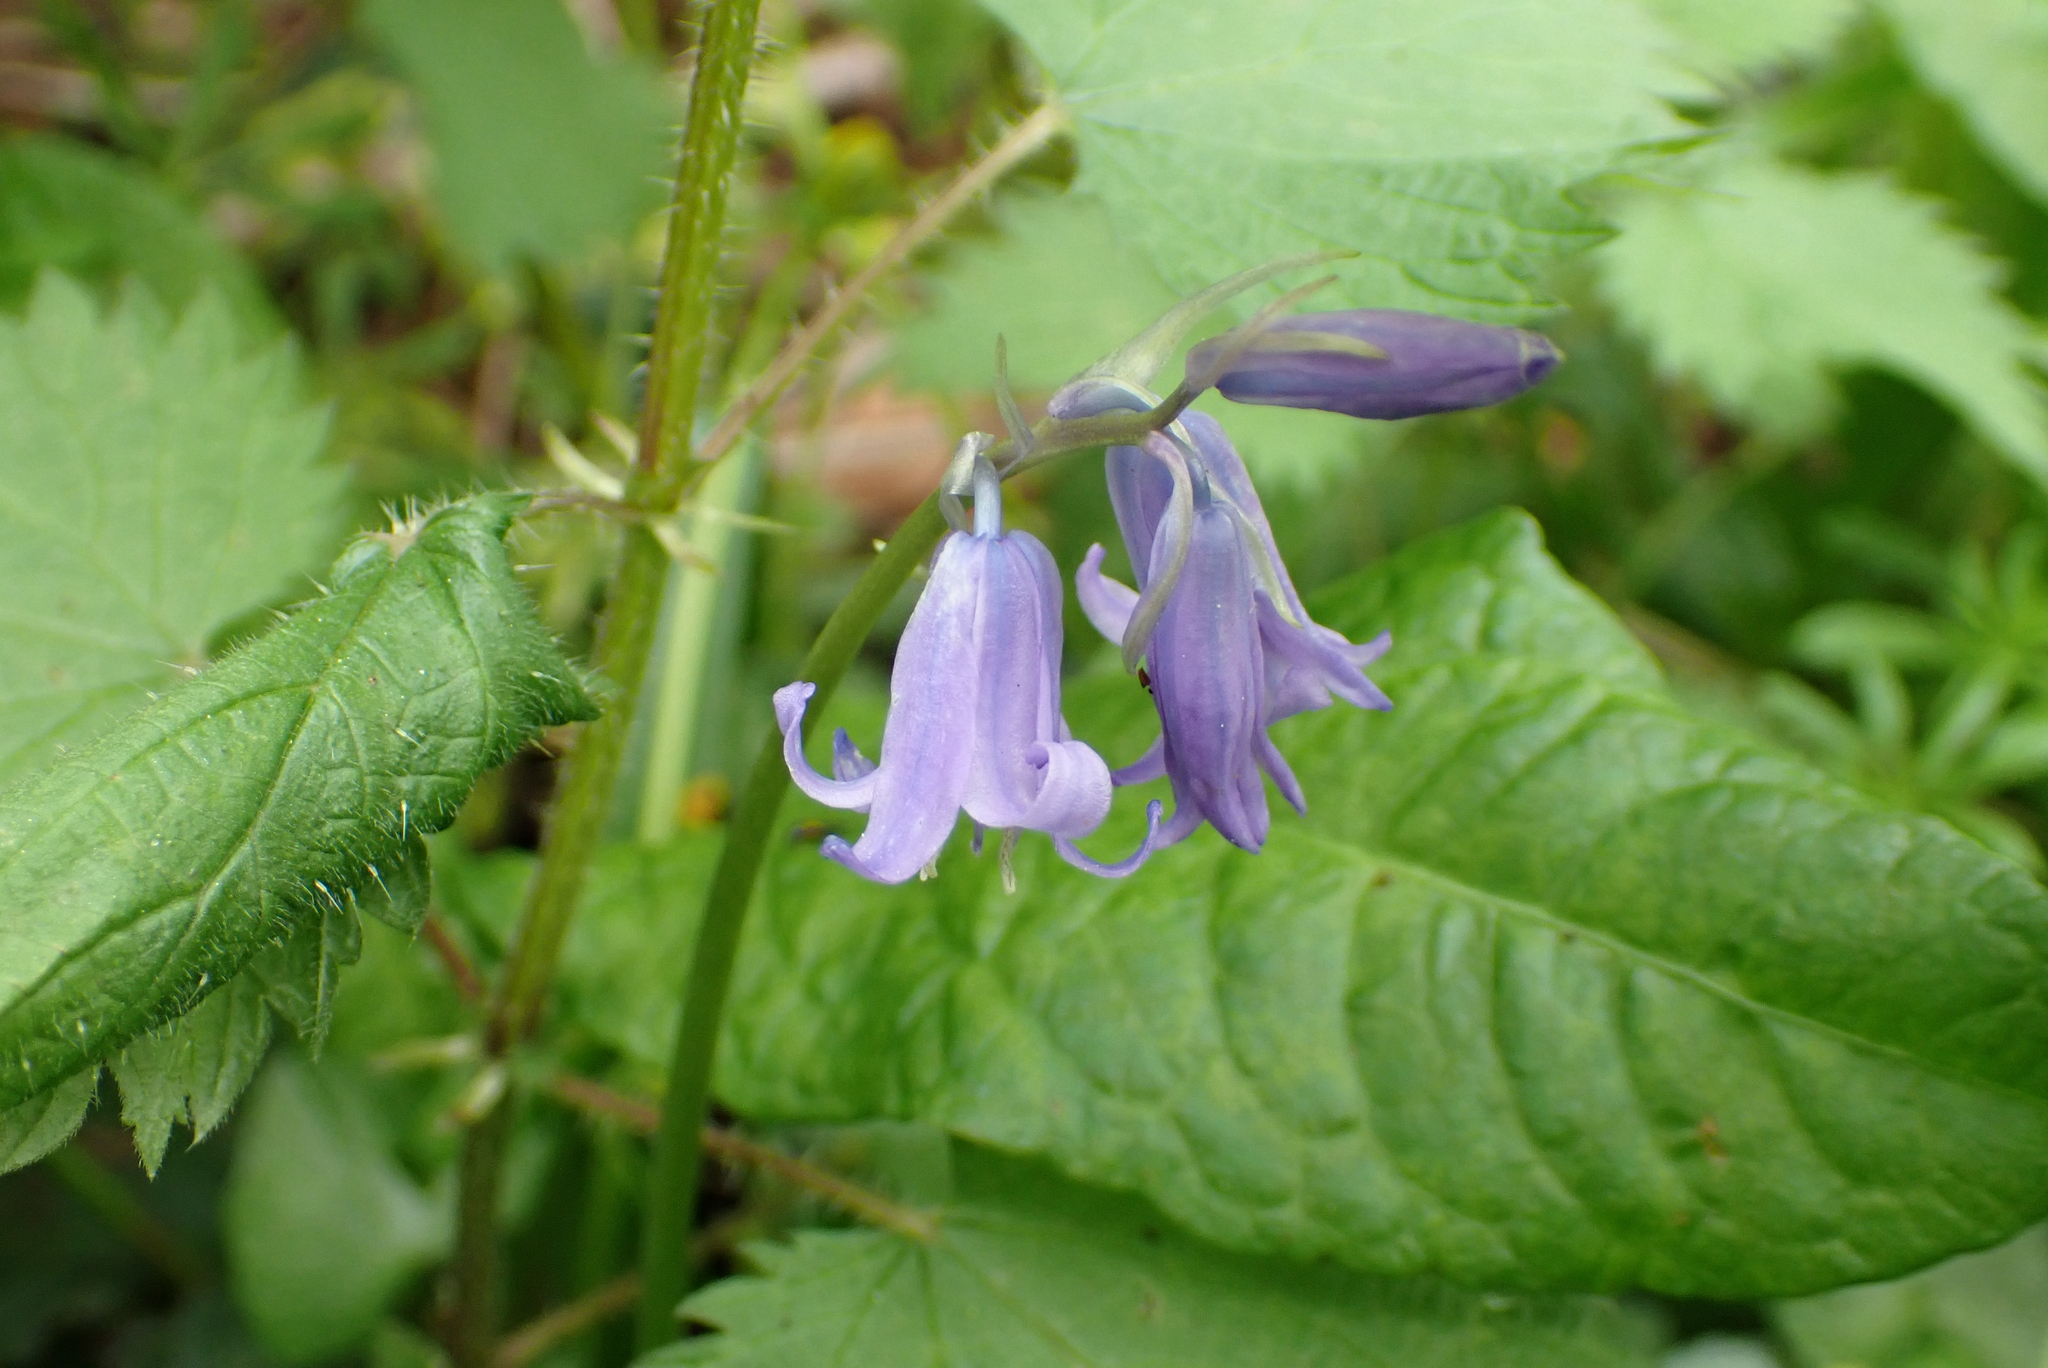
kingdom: Plantae
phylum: Tracheophyta
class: Liliopsida
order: Asparagales
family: Asparagaceae
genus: Hyacinthoides
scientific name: Hyacinthoides non-scripta
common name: Bluebell
